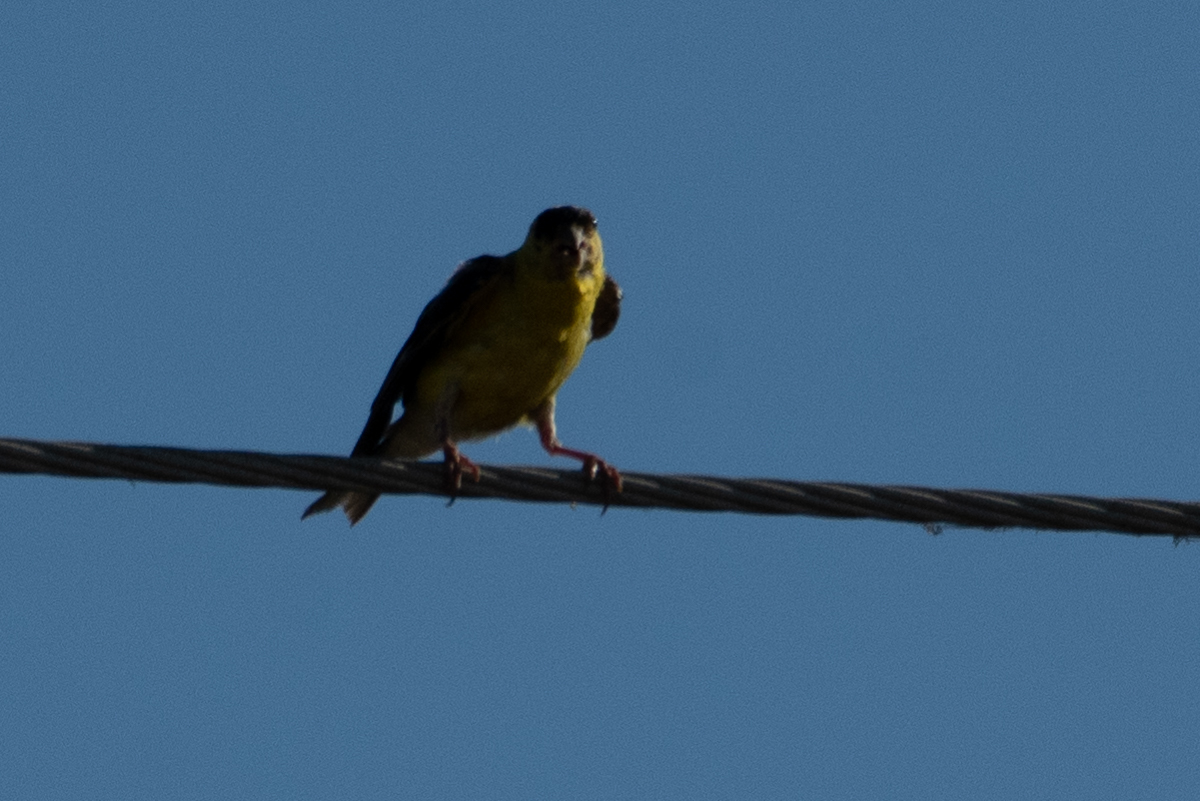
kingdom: Animalia
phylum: Chordata
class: Aves
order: Passeriformes
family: Fringillidae
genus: Spinus
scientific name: Spinus tristis
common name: American goldfinch
